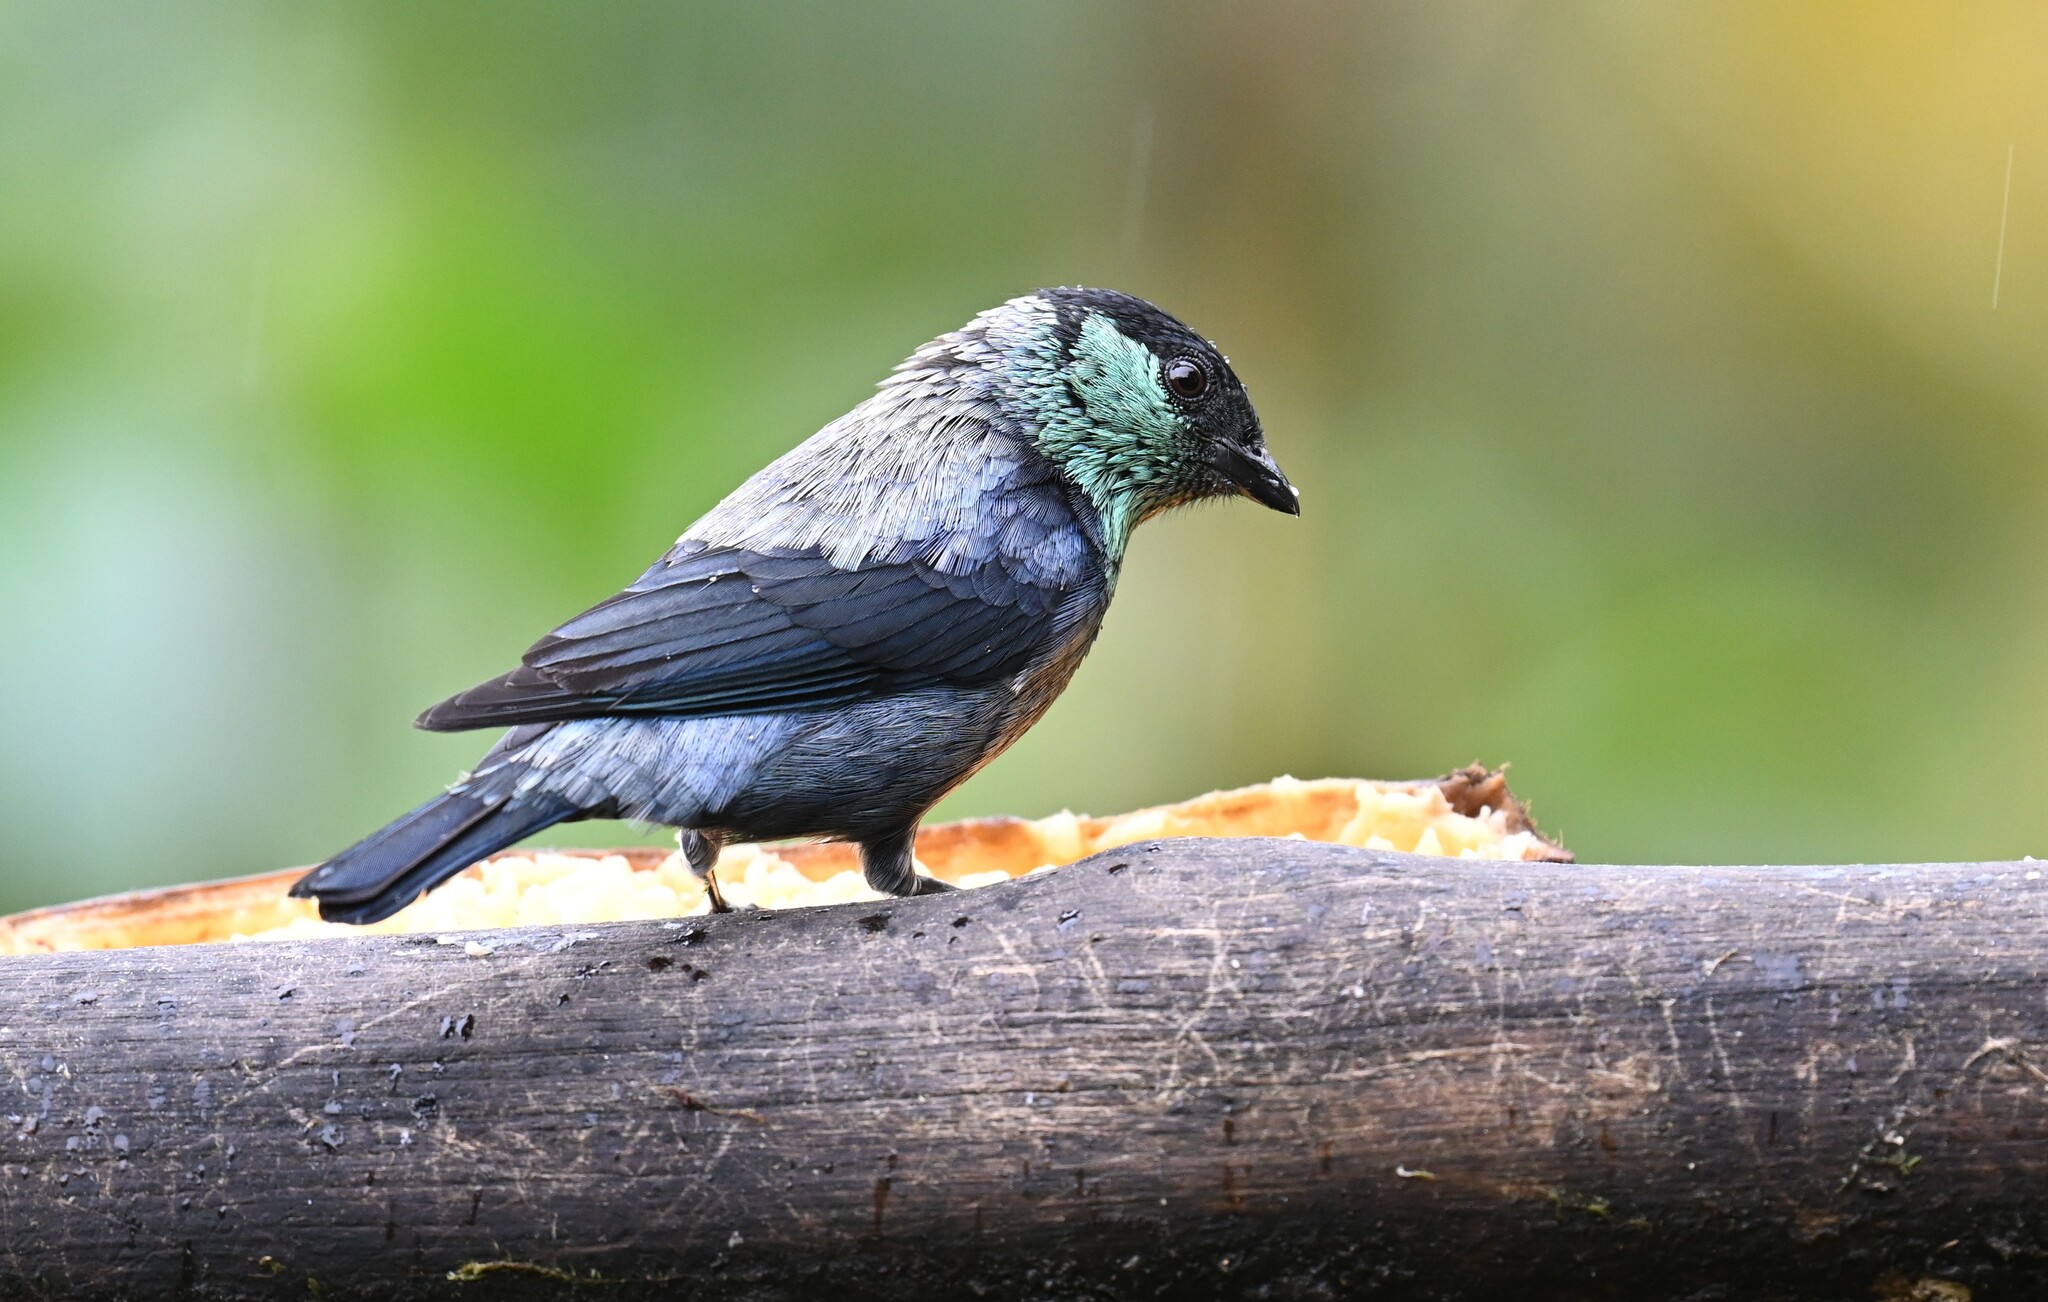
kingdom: Animalia
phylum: Chordata
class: Aves
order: Passeriformes
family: Thraupidae
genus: Stilpnia
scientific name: Stilpnia heinei
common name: Black-capped tanager
